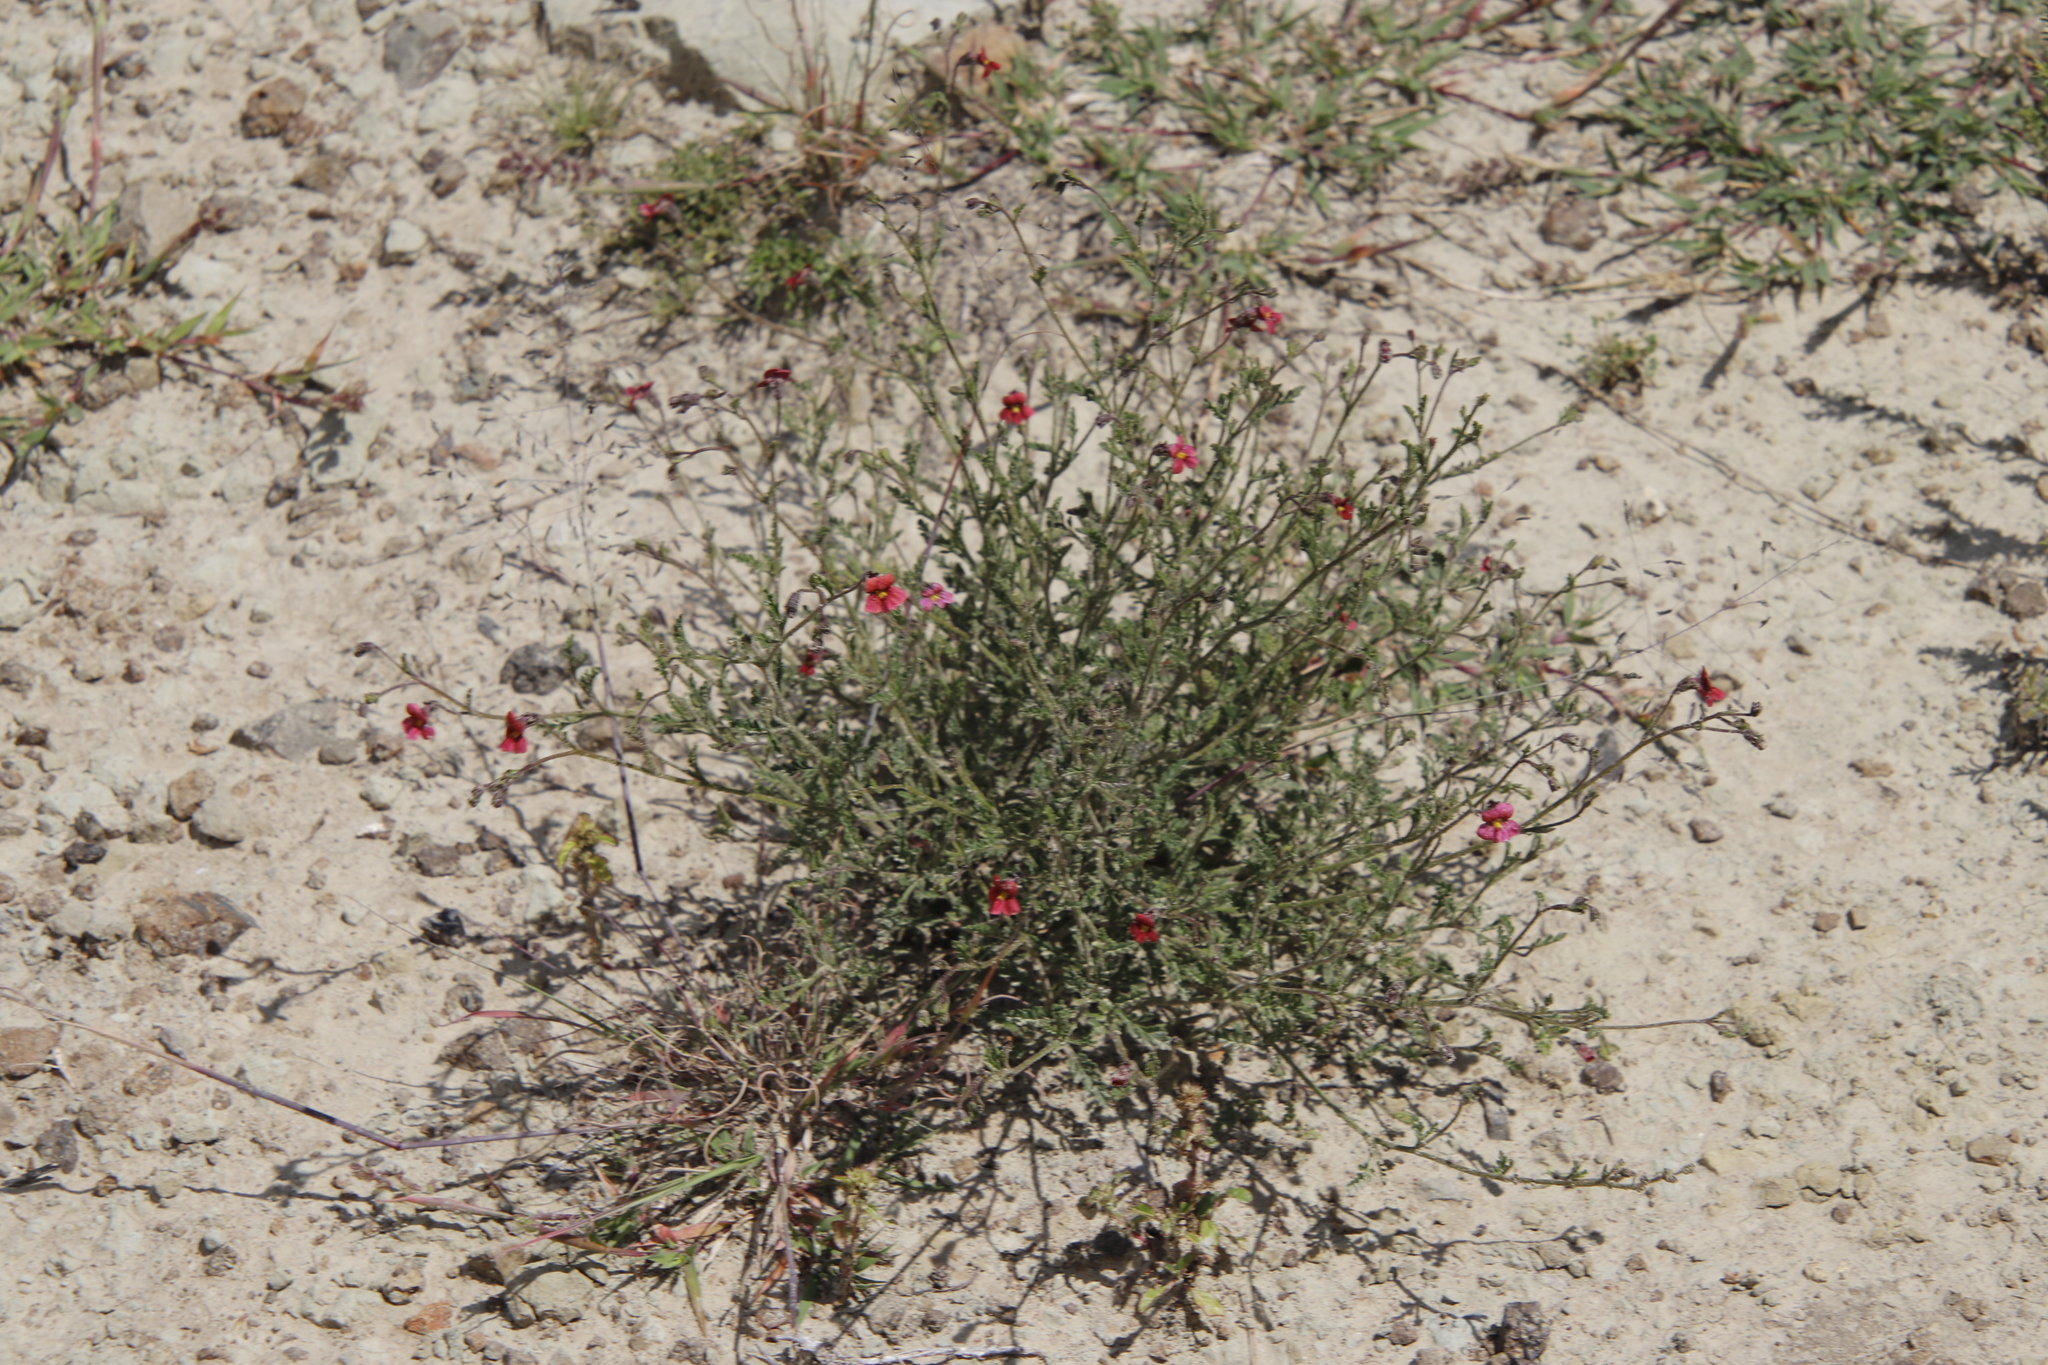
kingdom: Plantae
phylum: Tracheophyta
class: Magnoliopsida
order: Lamiales
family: Scrophulariaceae
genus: Jamesbrittenia
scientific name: Jamesbrittenia breviflora
